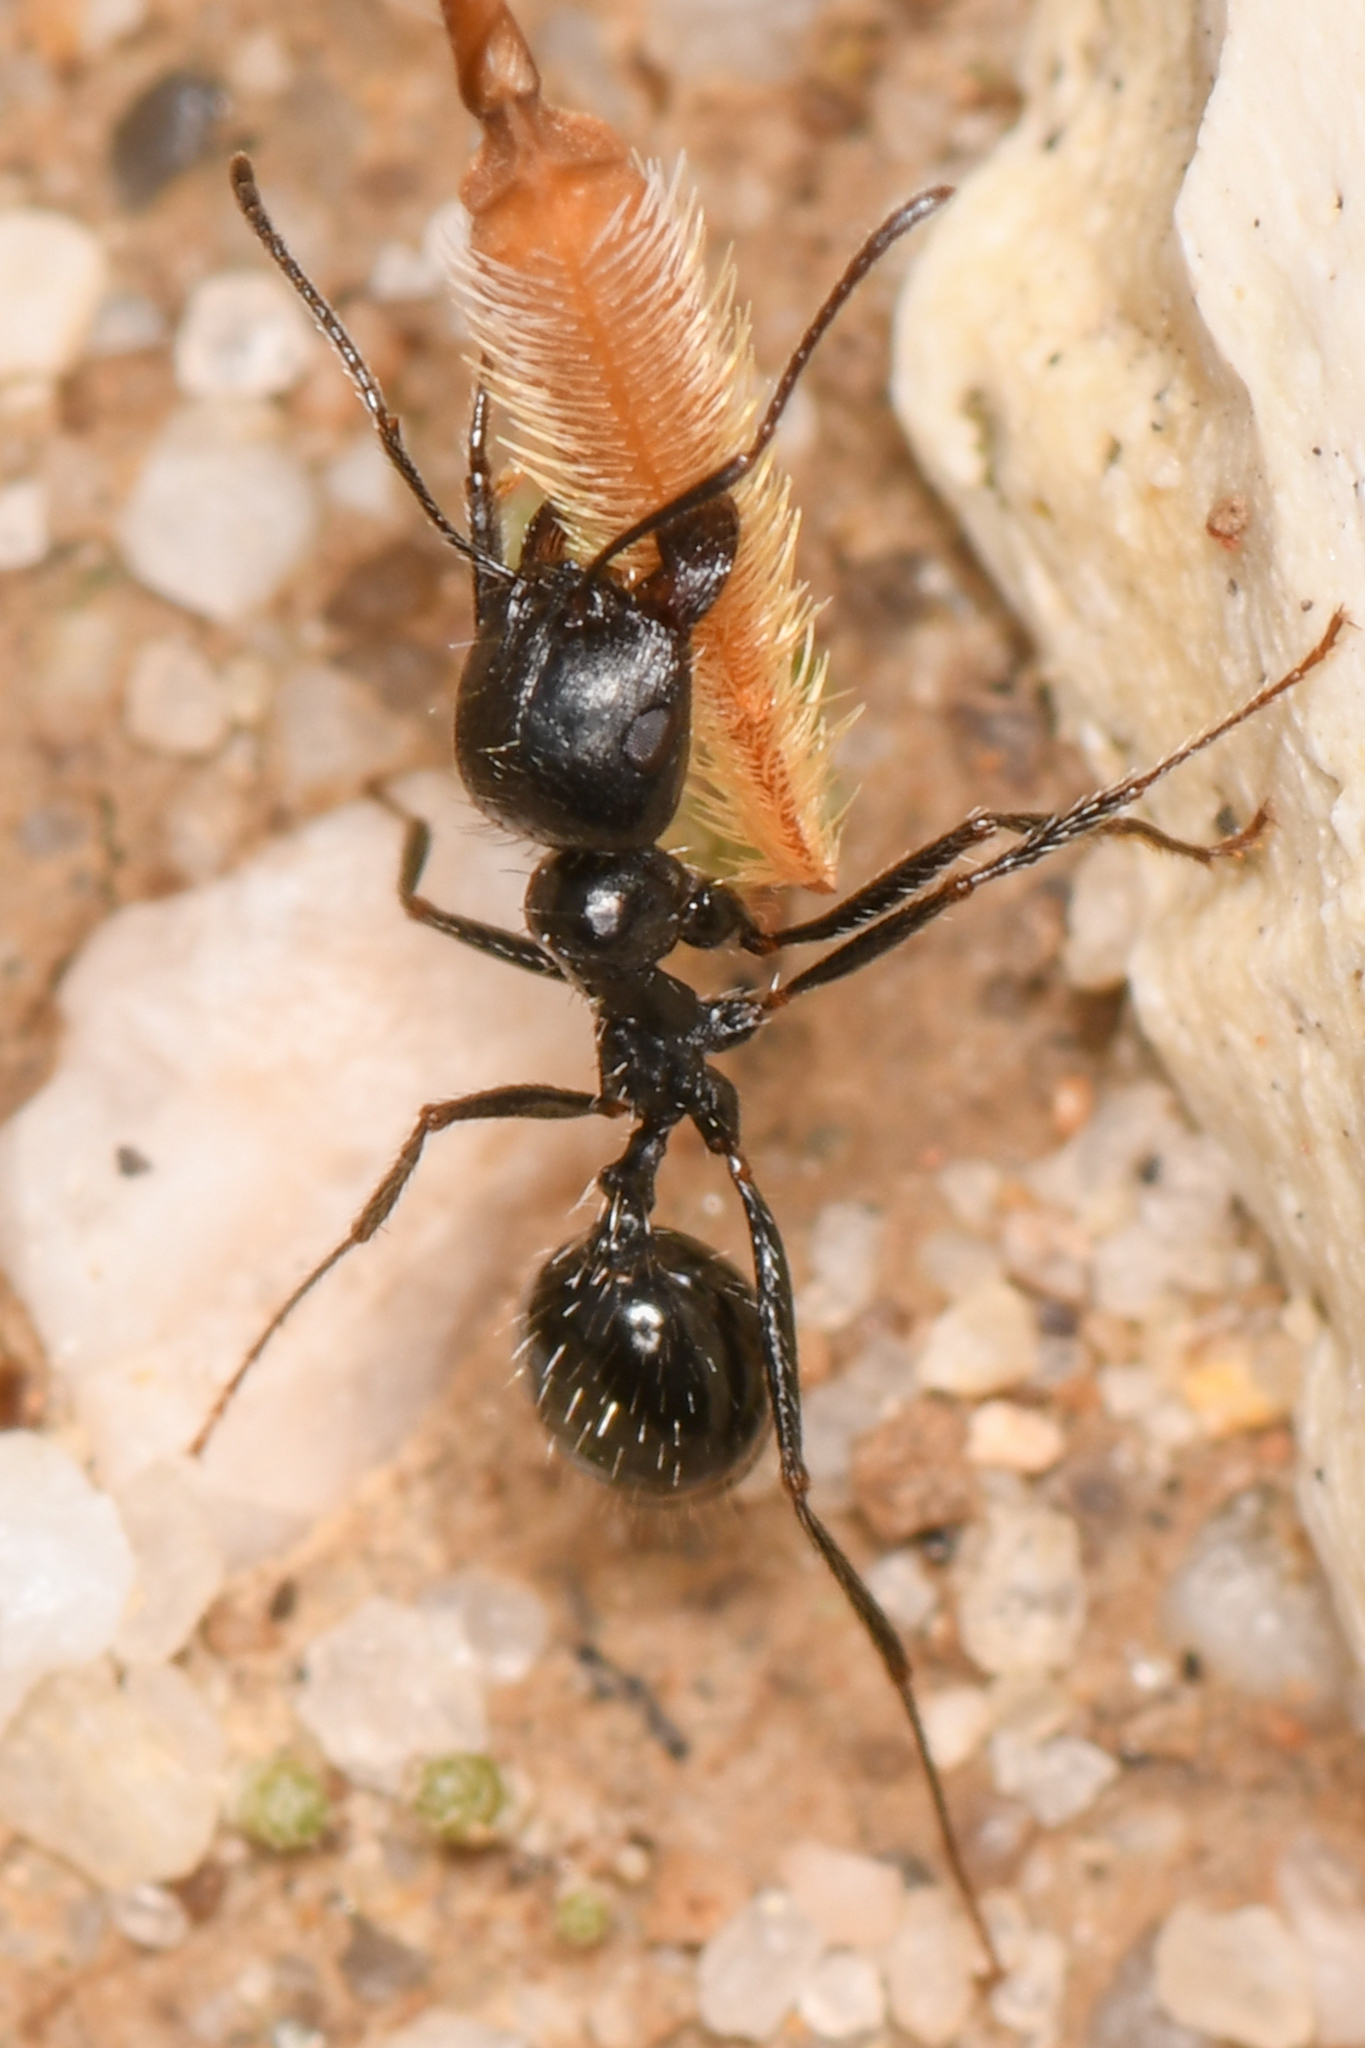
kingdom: Animalia
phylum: Arthropoda
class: Insecta
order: Hymenoptera
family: Formicidae
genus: Messor
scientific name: Messor pergandei
